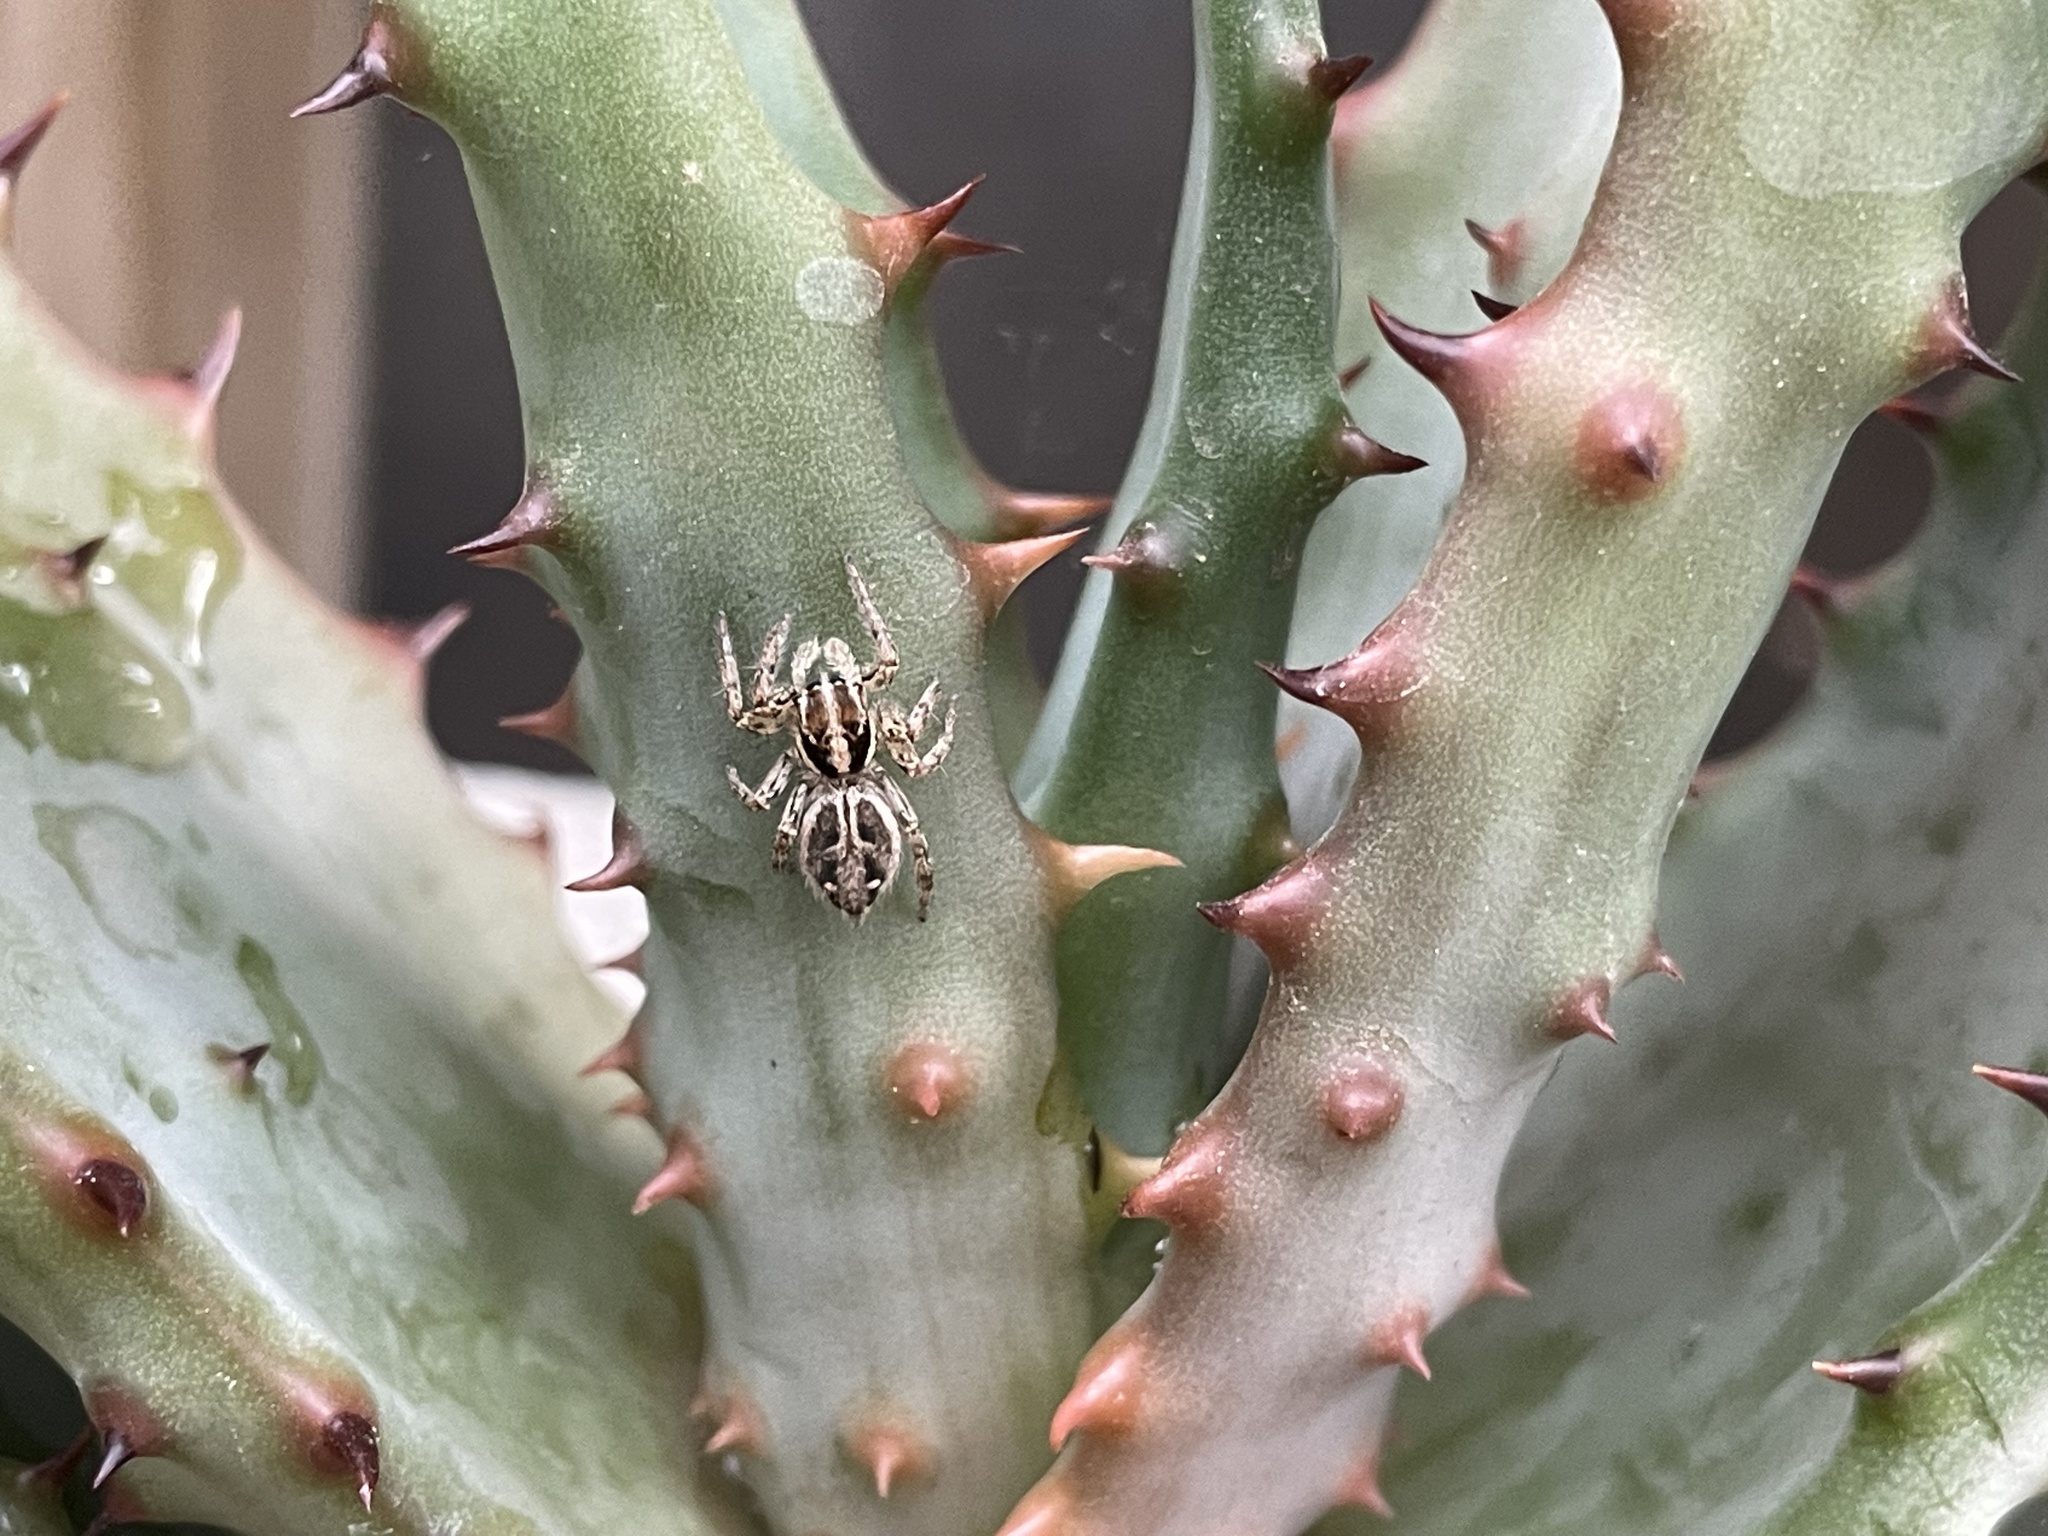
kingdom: Animalia
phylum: Arthropoda
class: Arachnida
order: Araneae
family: Salticidae
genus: Plexippus
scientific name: Plexippus paykulli
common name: Pantropical jumper
